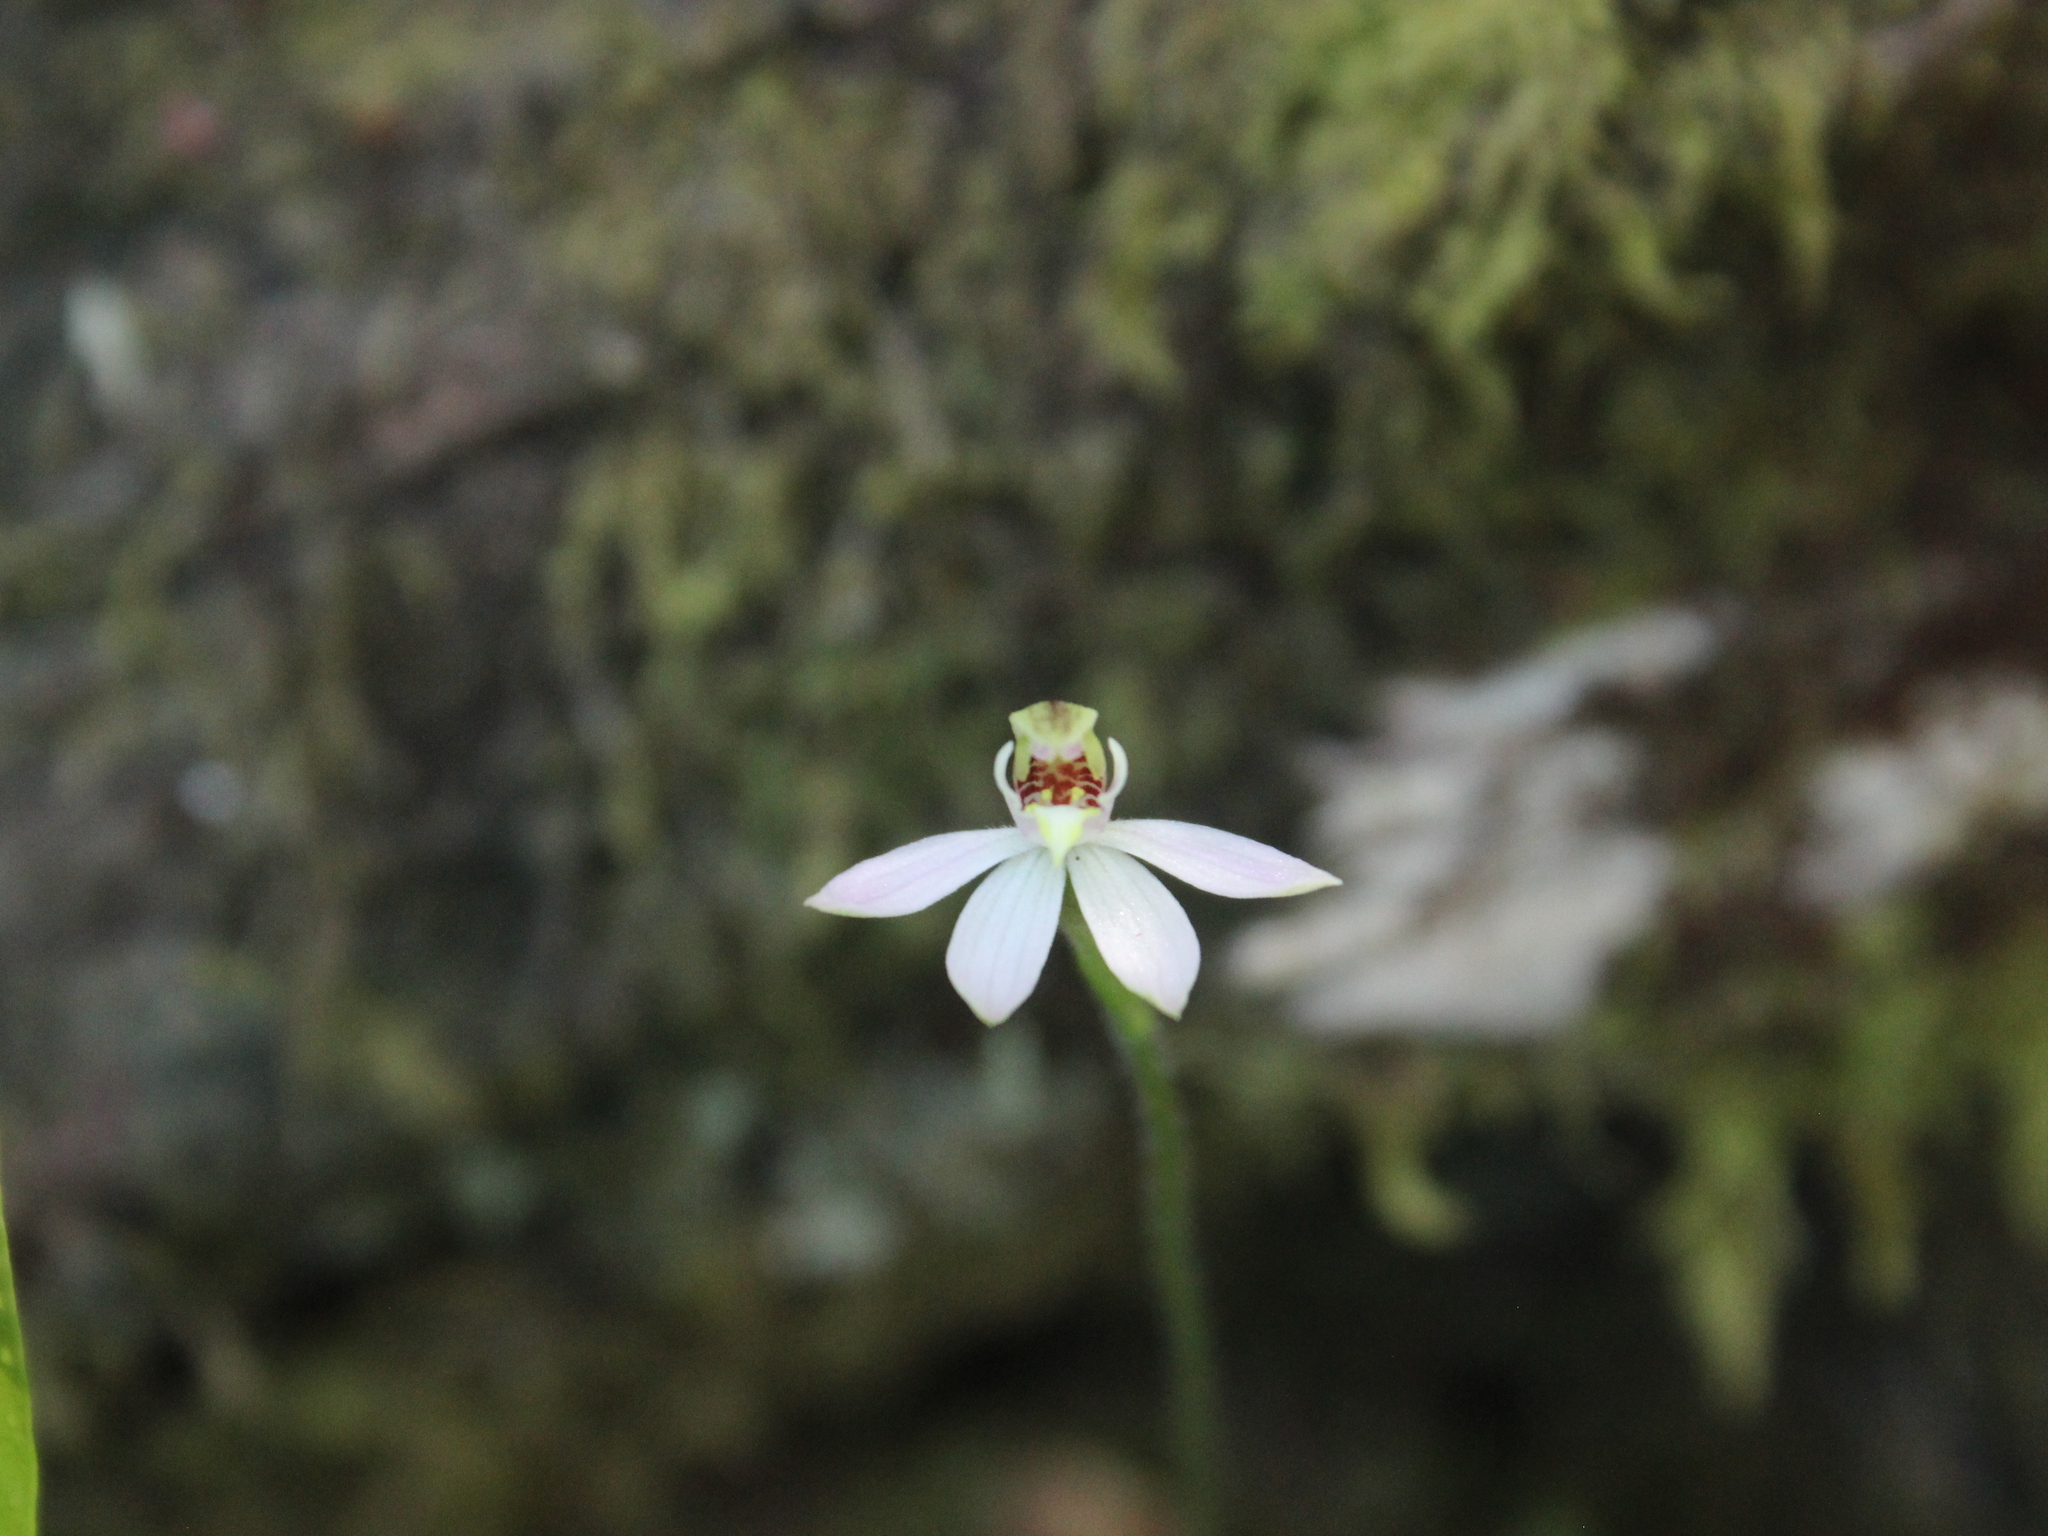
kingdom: Plantae
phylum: Tracheophyta
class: Liliopsida
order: Asparagales
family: Orchidaceae
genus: Caladenia
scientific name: Caladenia variegata
